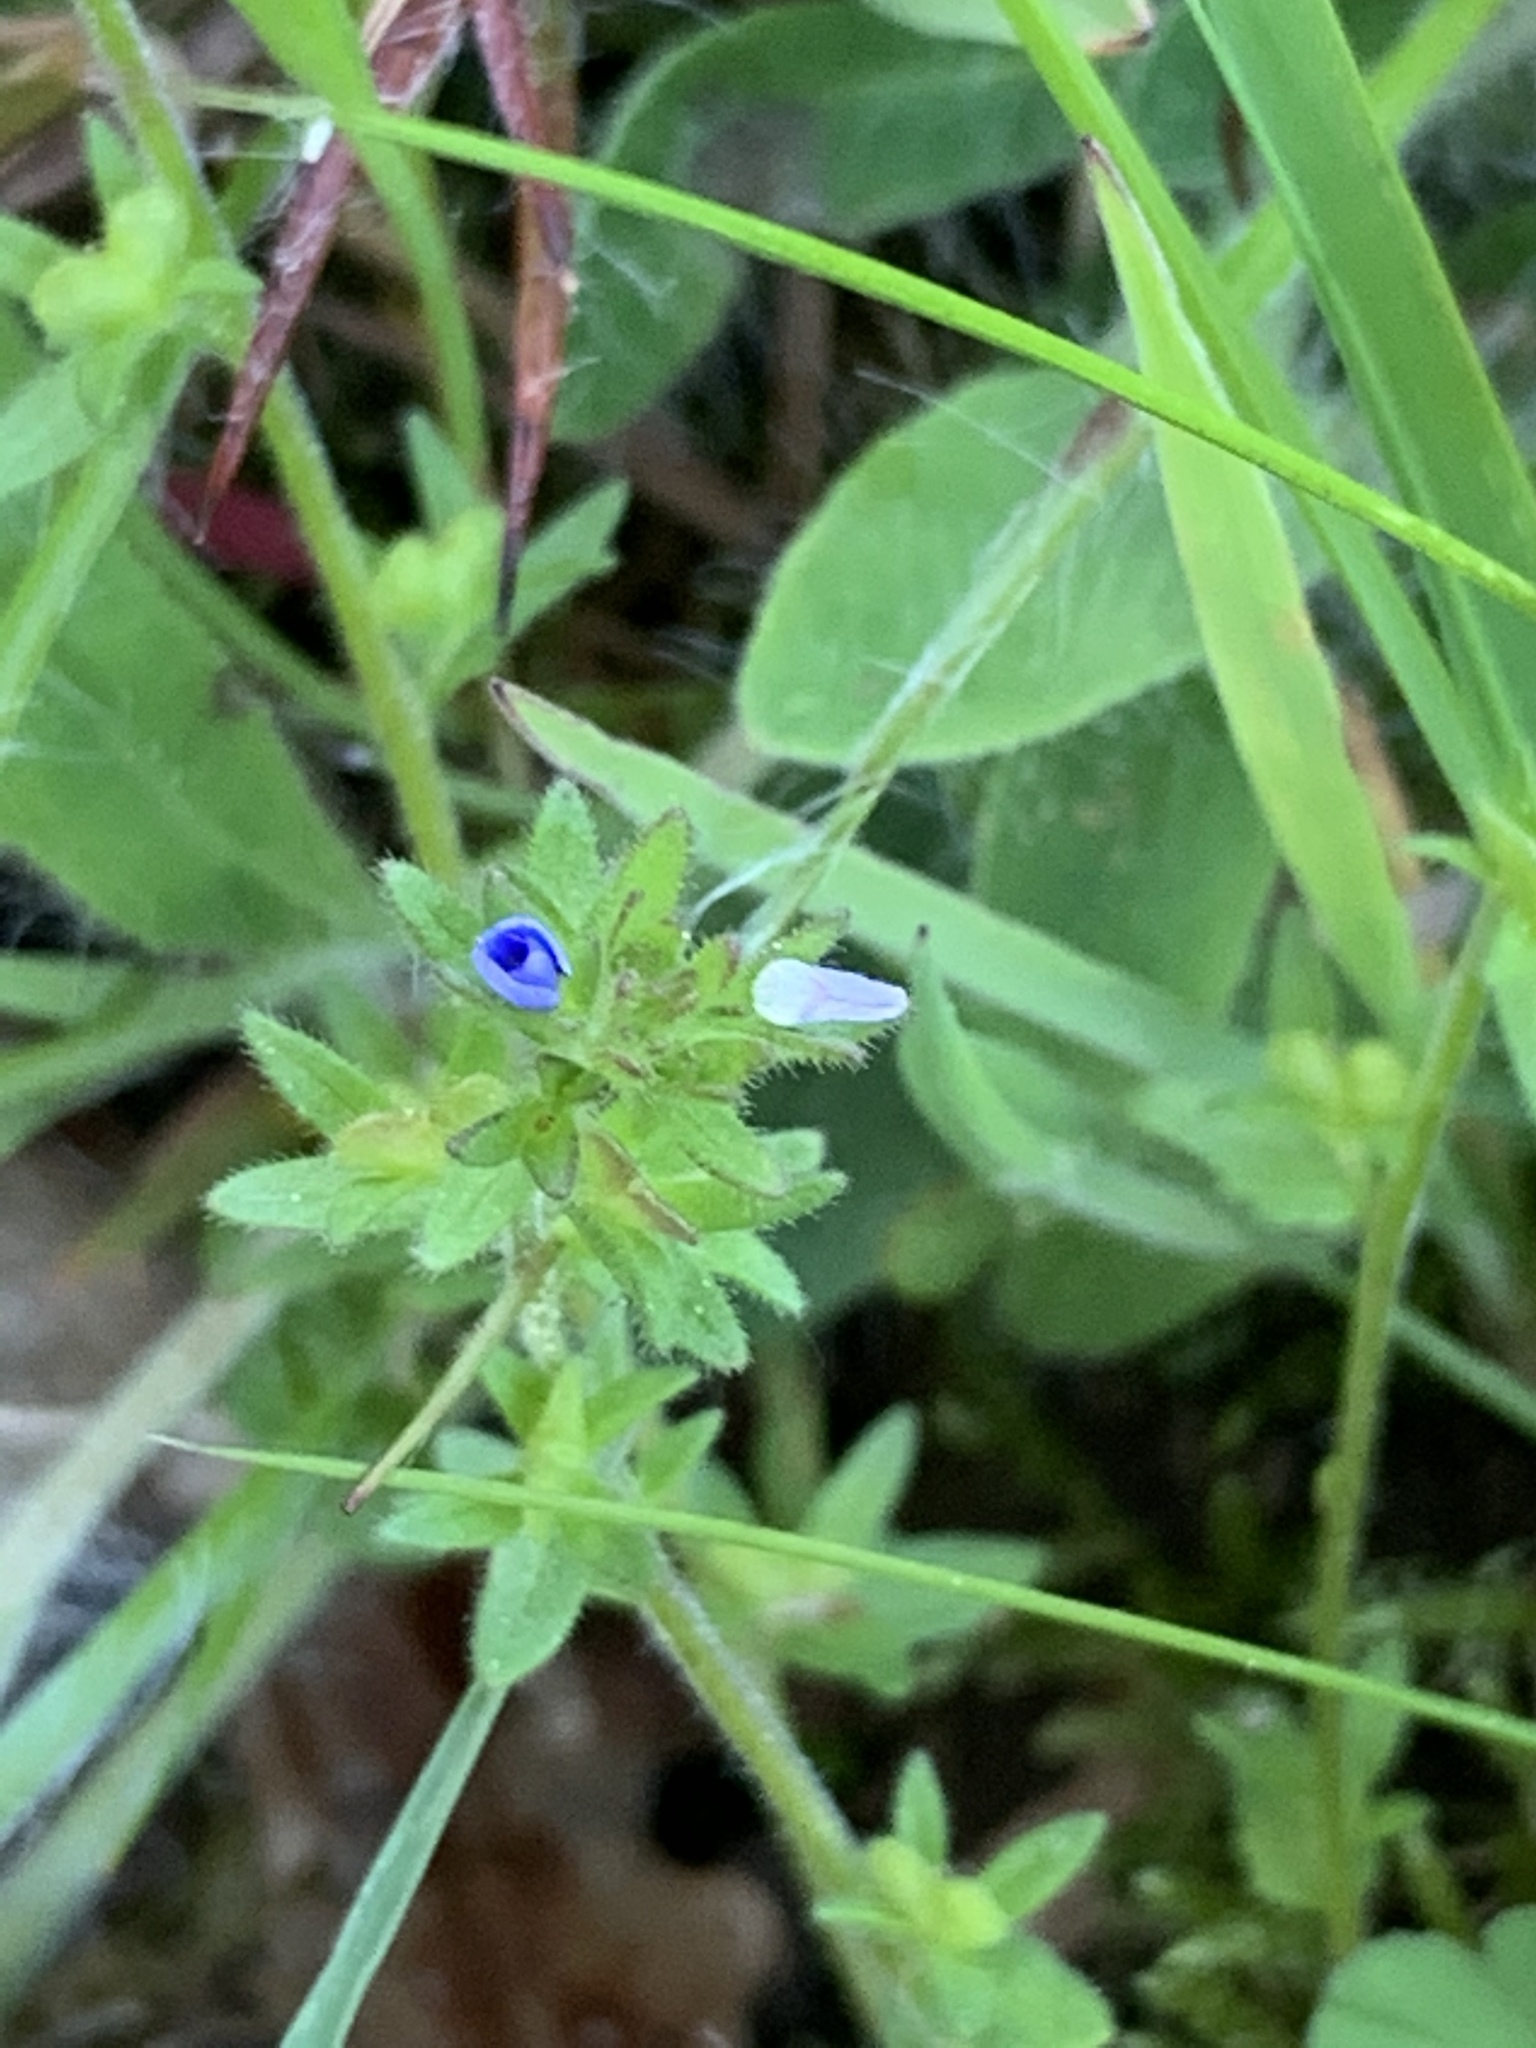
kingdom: Plantae
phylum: Tracheophyta
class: Magnoliopsida
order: Lamiales
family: Plantaginaceae
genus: Veronica
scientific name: Veronica arvensis
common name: Corn speedwell
